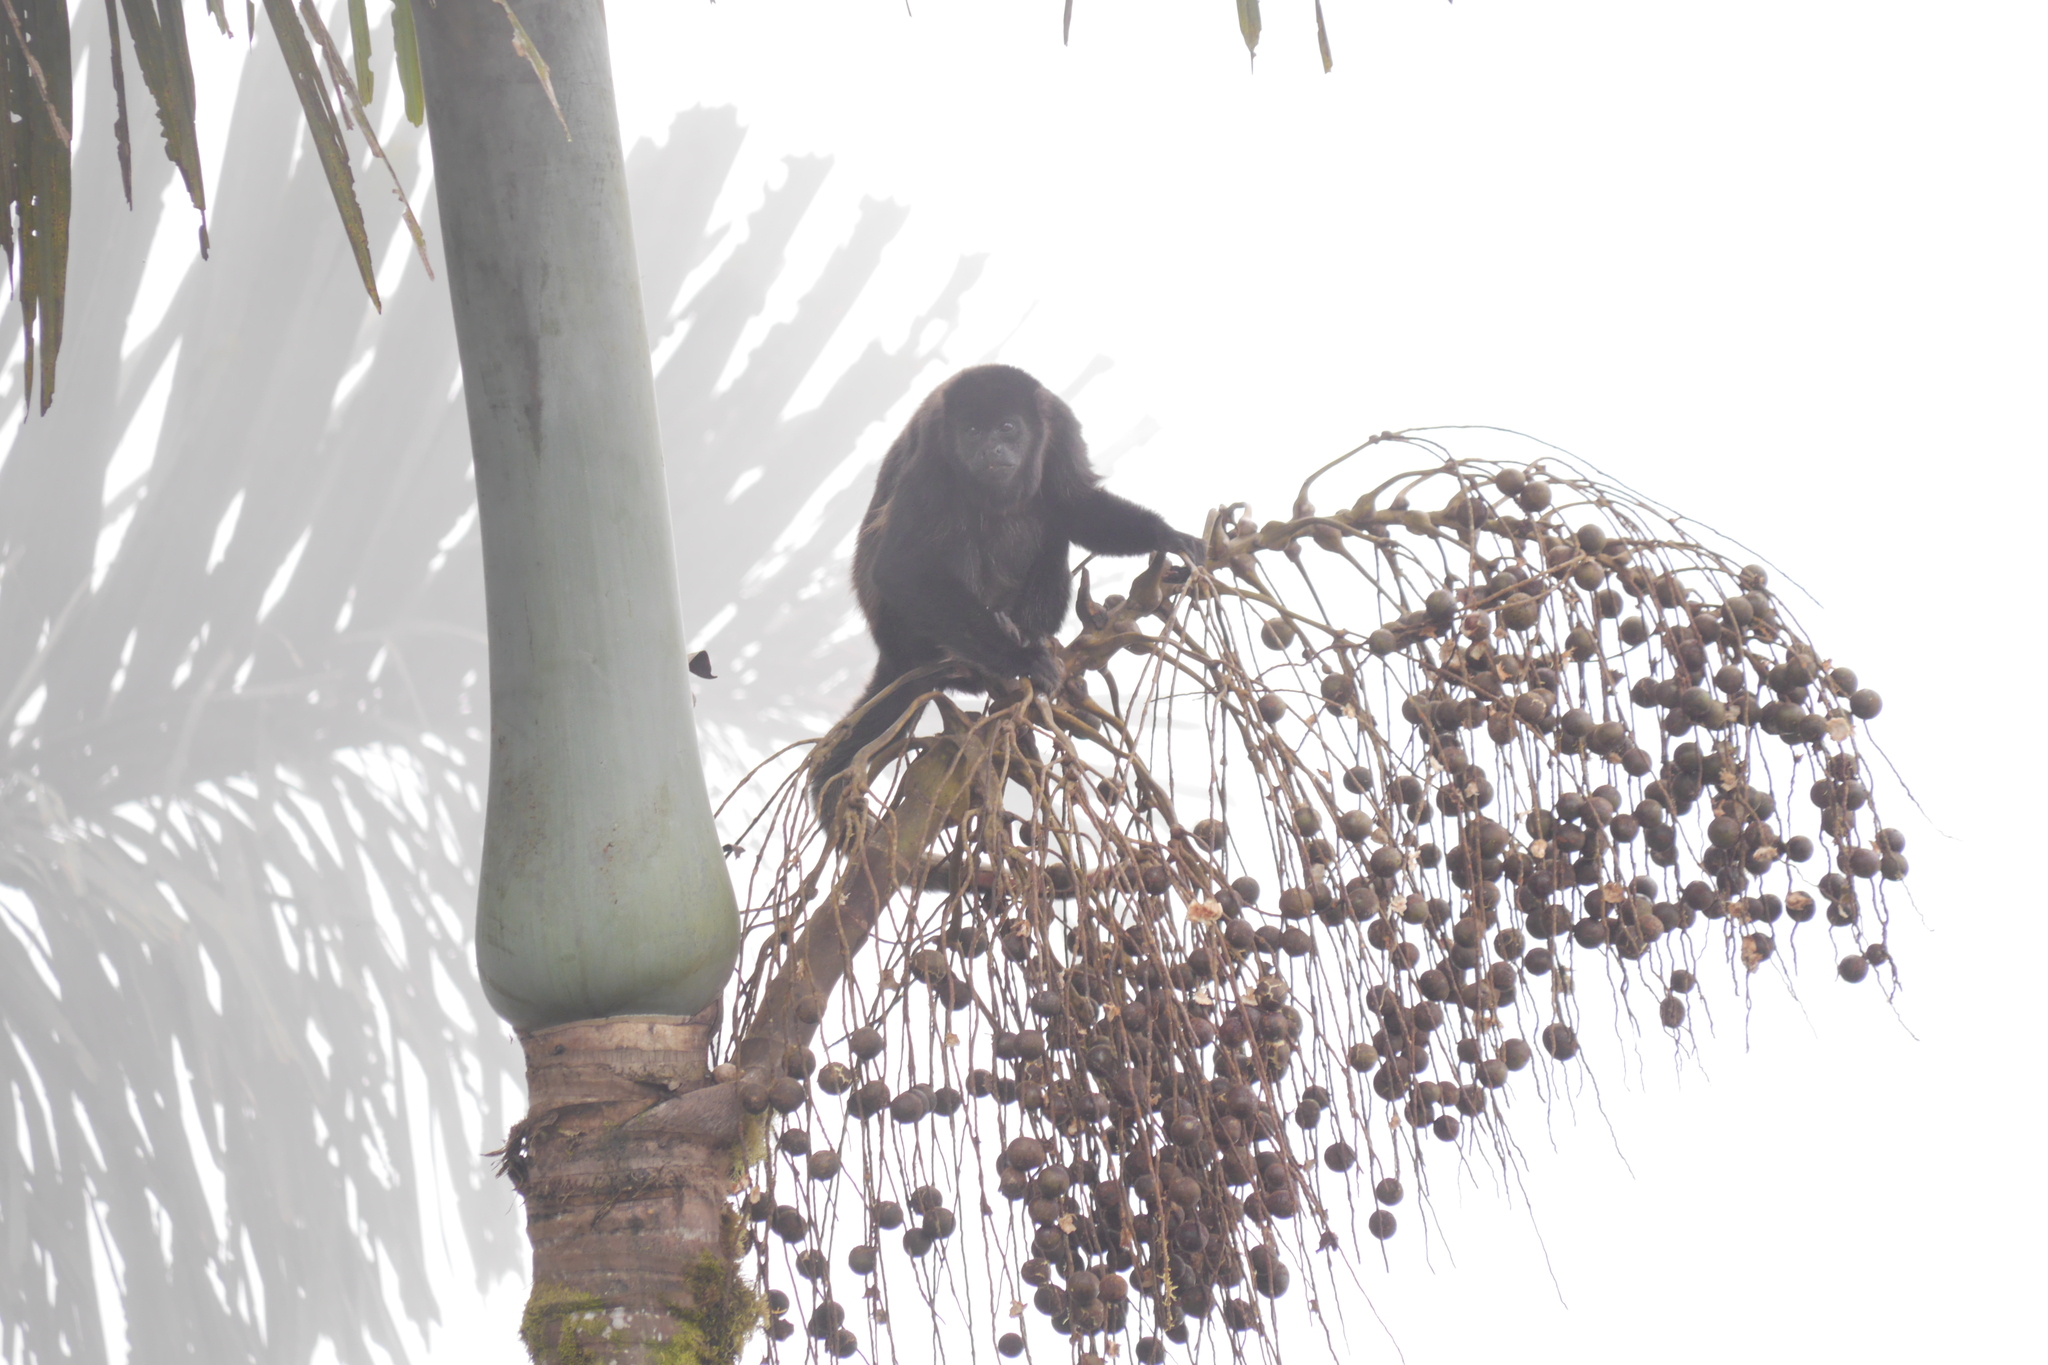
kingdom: Animalia
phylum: Chordata
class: Mammalia
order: Primates
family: Atelidae
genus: Alouatta
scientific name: Alouatta palliata
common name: Mantled howler
